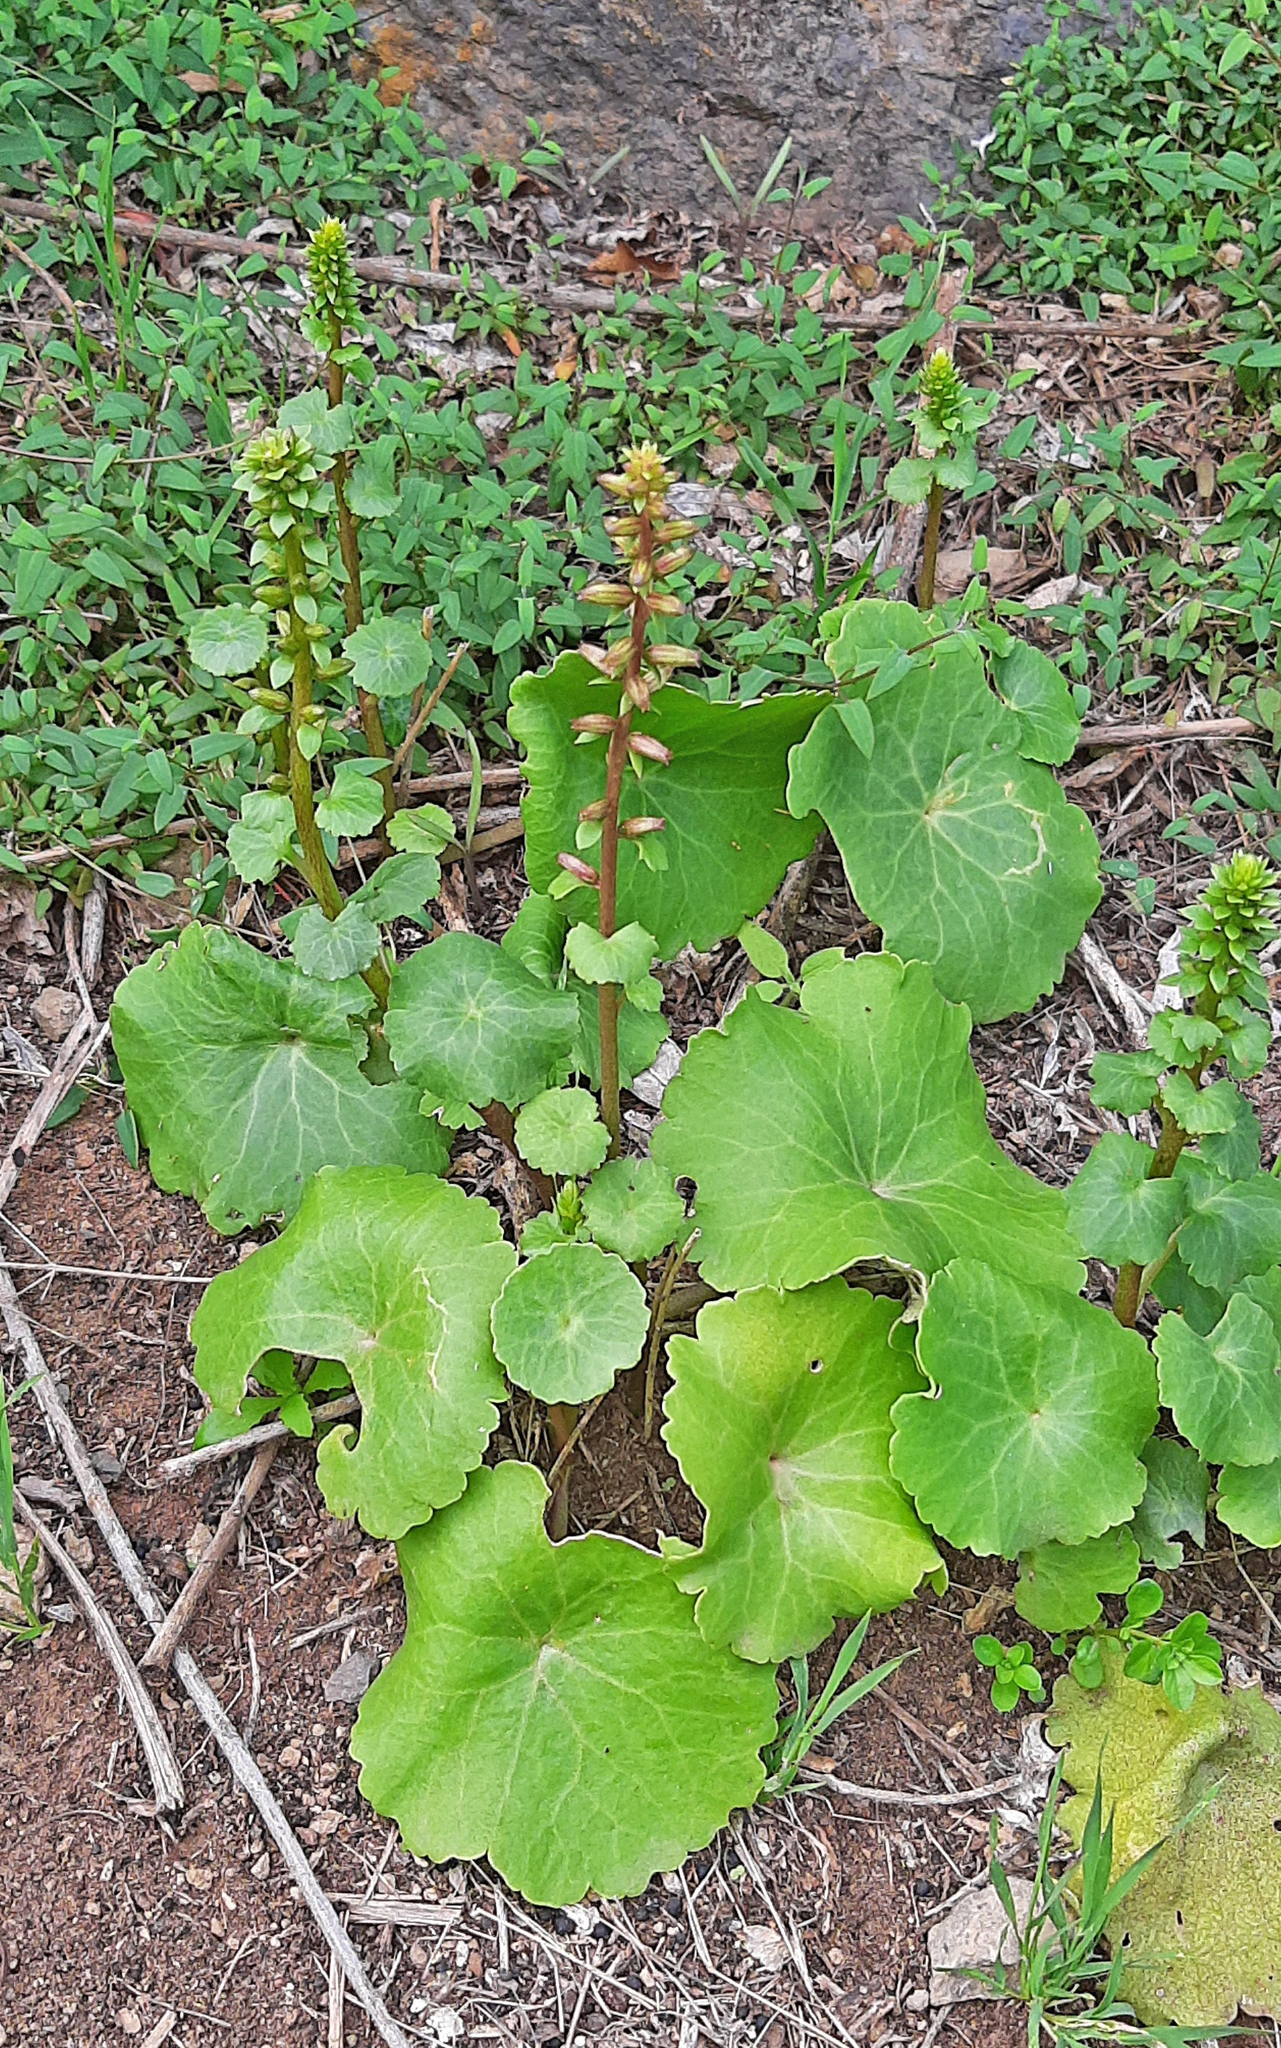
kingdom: Plantae
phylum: Tracheophyta
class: Magnoliopsida
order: Saxifragales
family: Crassulaceae
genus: Umbilicus
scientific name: Umbilicus horizontalis
